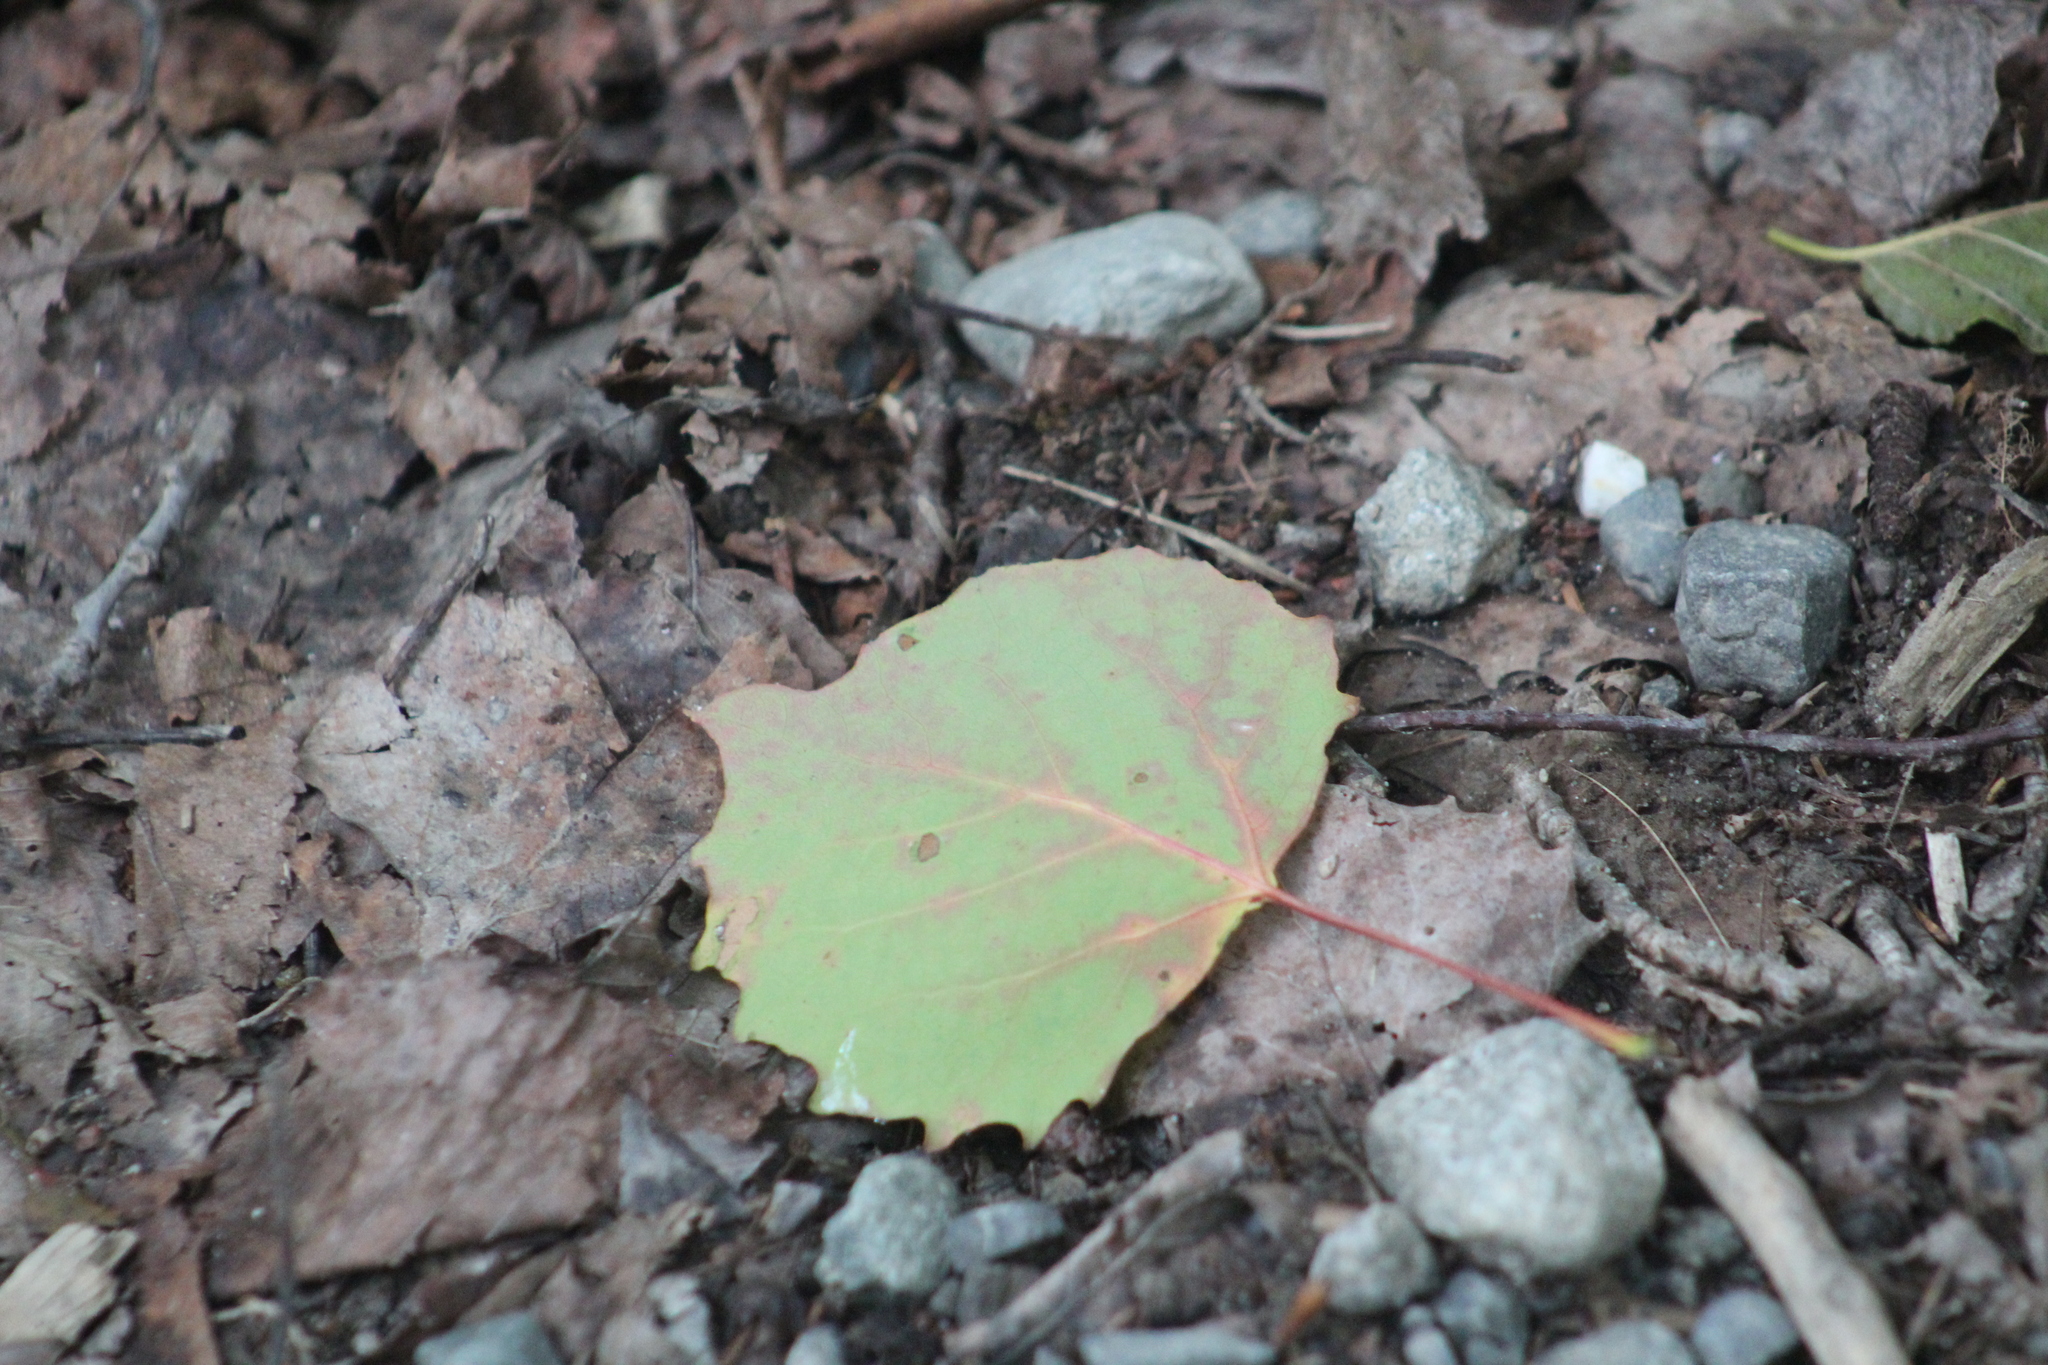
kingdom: Plantae
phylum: Tracheophyta
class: Magnoliopsida
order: Malpighiales
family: Salicaceae
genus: Populus
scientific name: Populus grandidentata
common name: Bigtooth aspen
